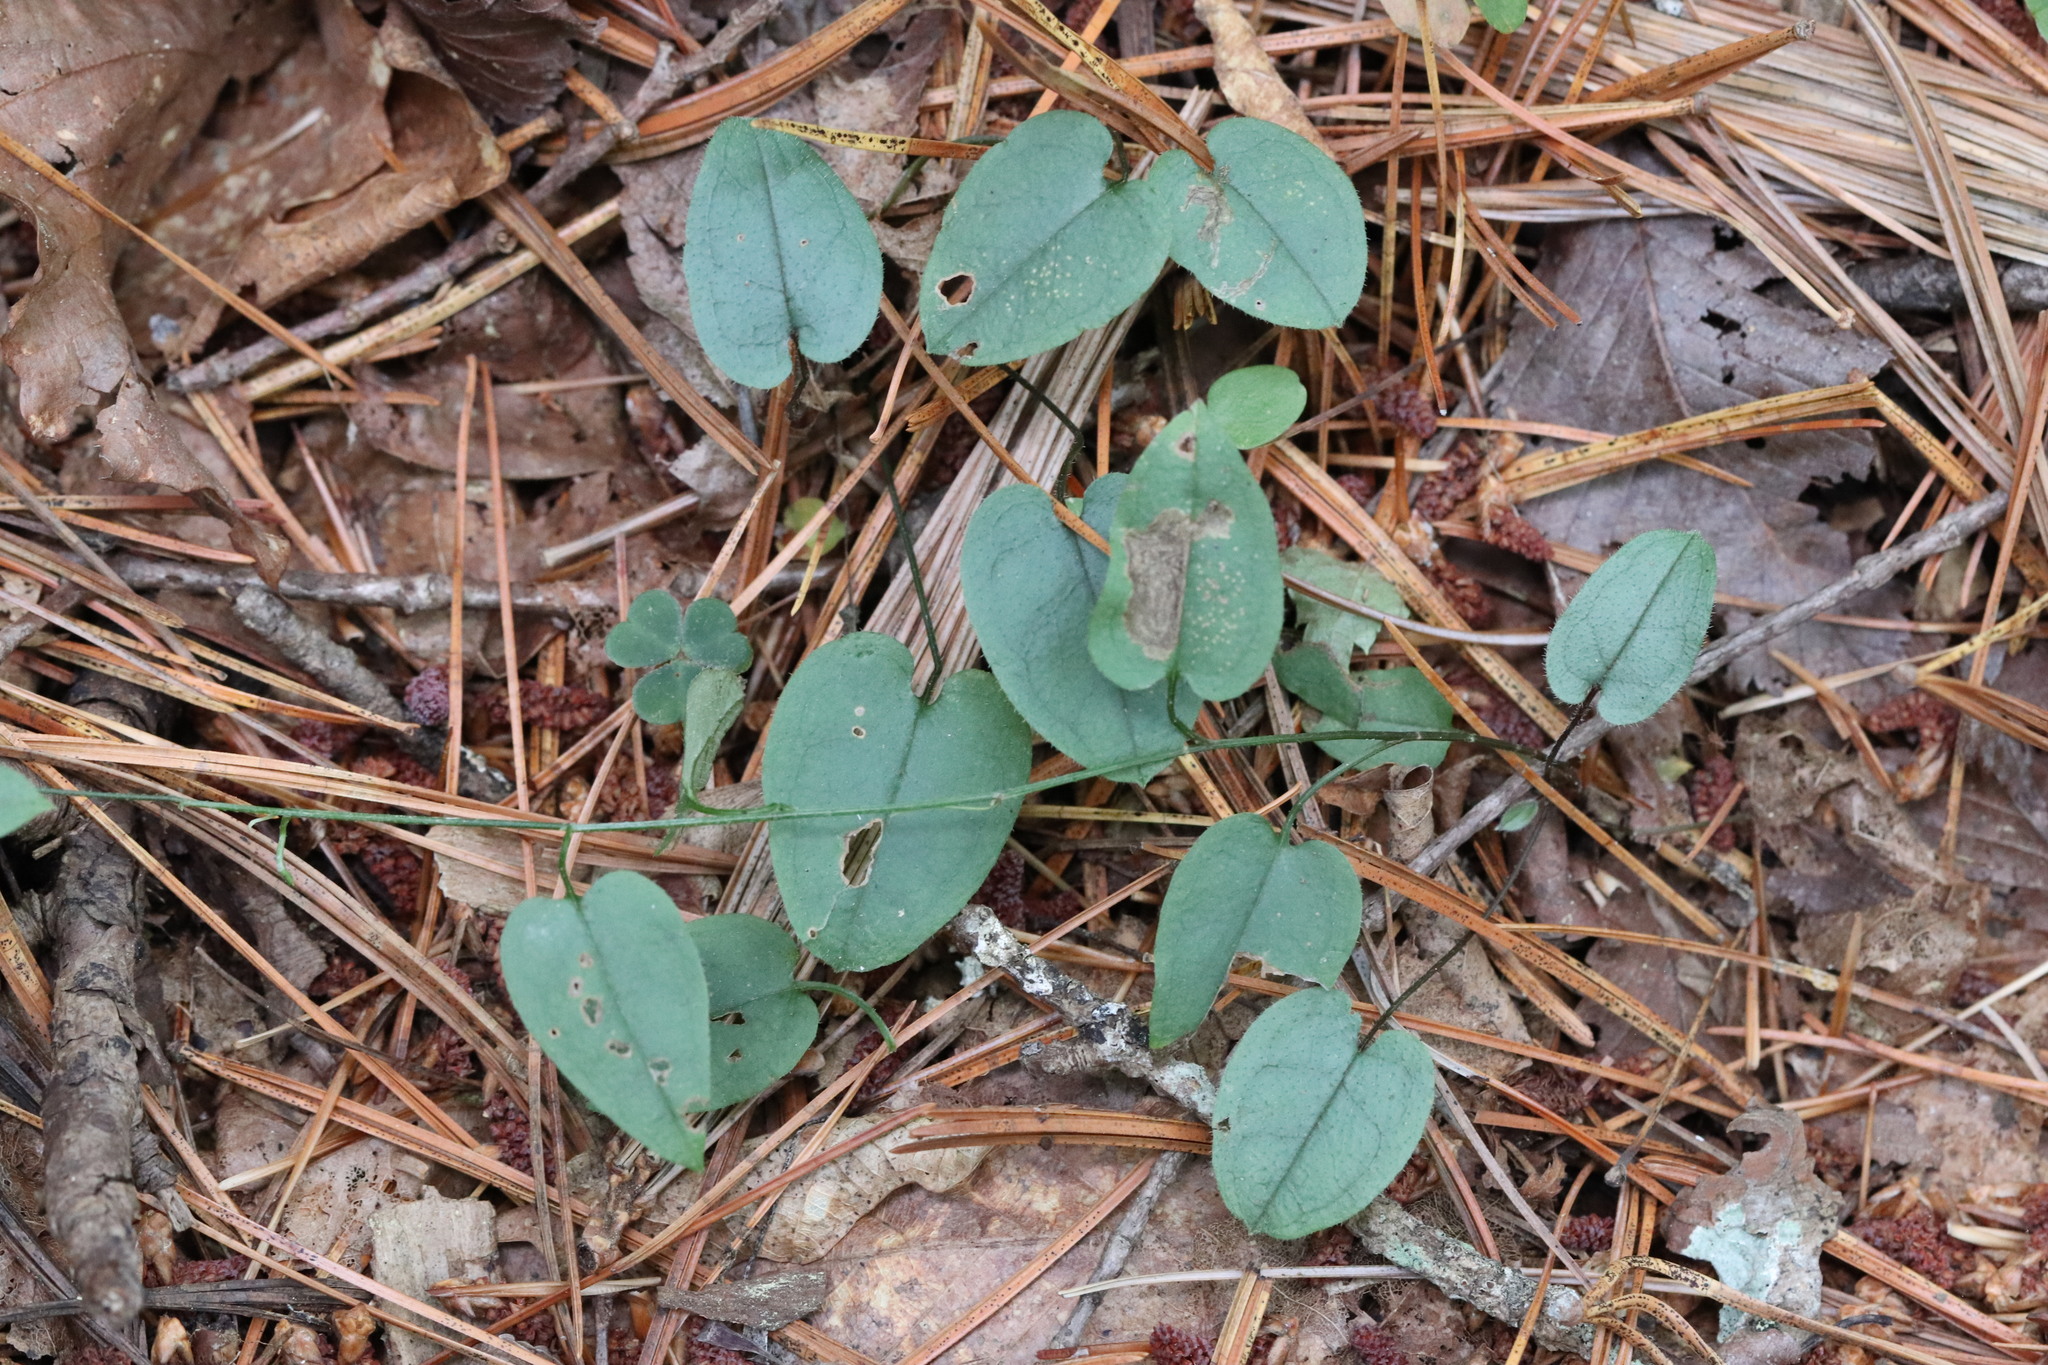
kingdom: Plantae
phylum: Tracheophyta
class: Magnoliopsida
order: Boraginales
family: Boraginaceae
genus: Trigonotis
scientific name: Trigonotis radicans
